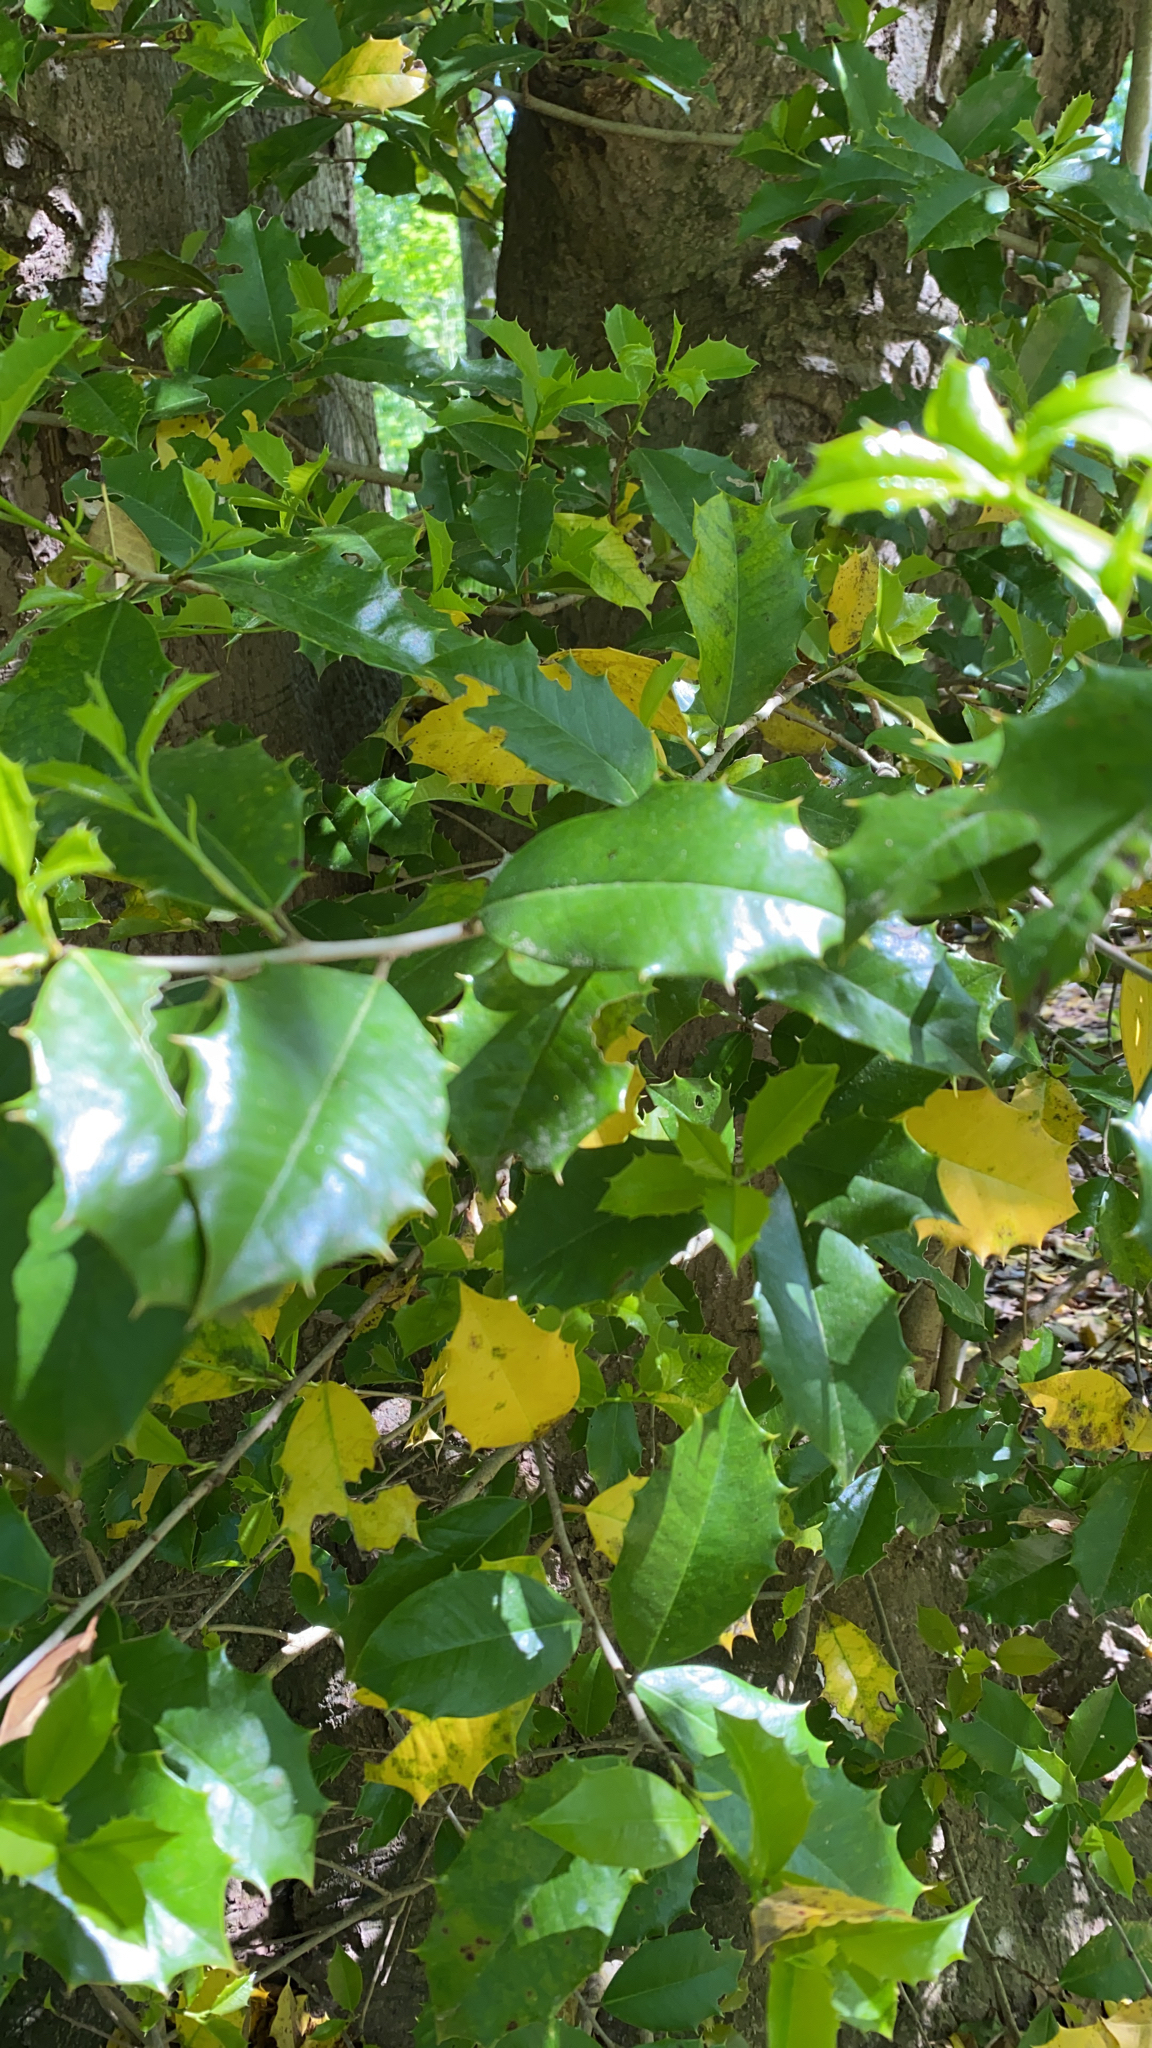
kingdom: Plantae
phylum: Tracheophyta
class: Magnoliopsida
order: Aquifoliales
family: Aquifoliaceae
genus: Ilex
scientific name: Ilex opaca
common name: American holly
